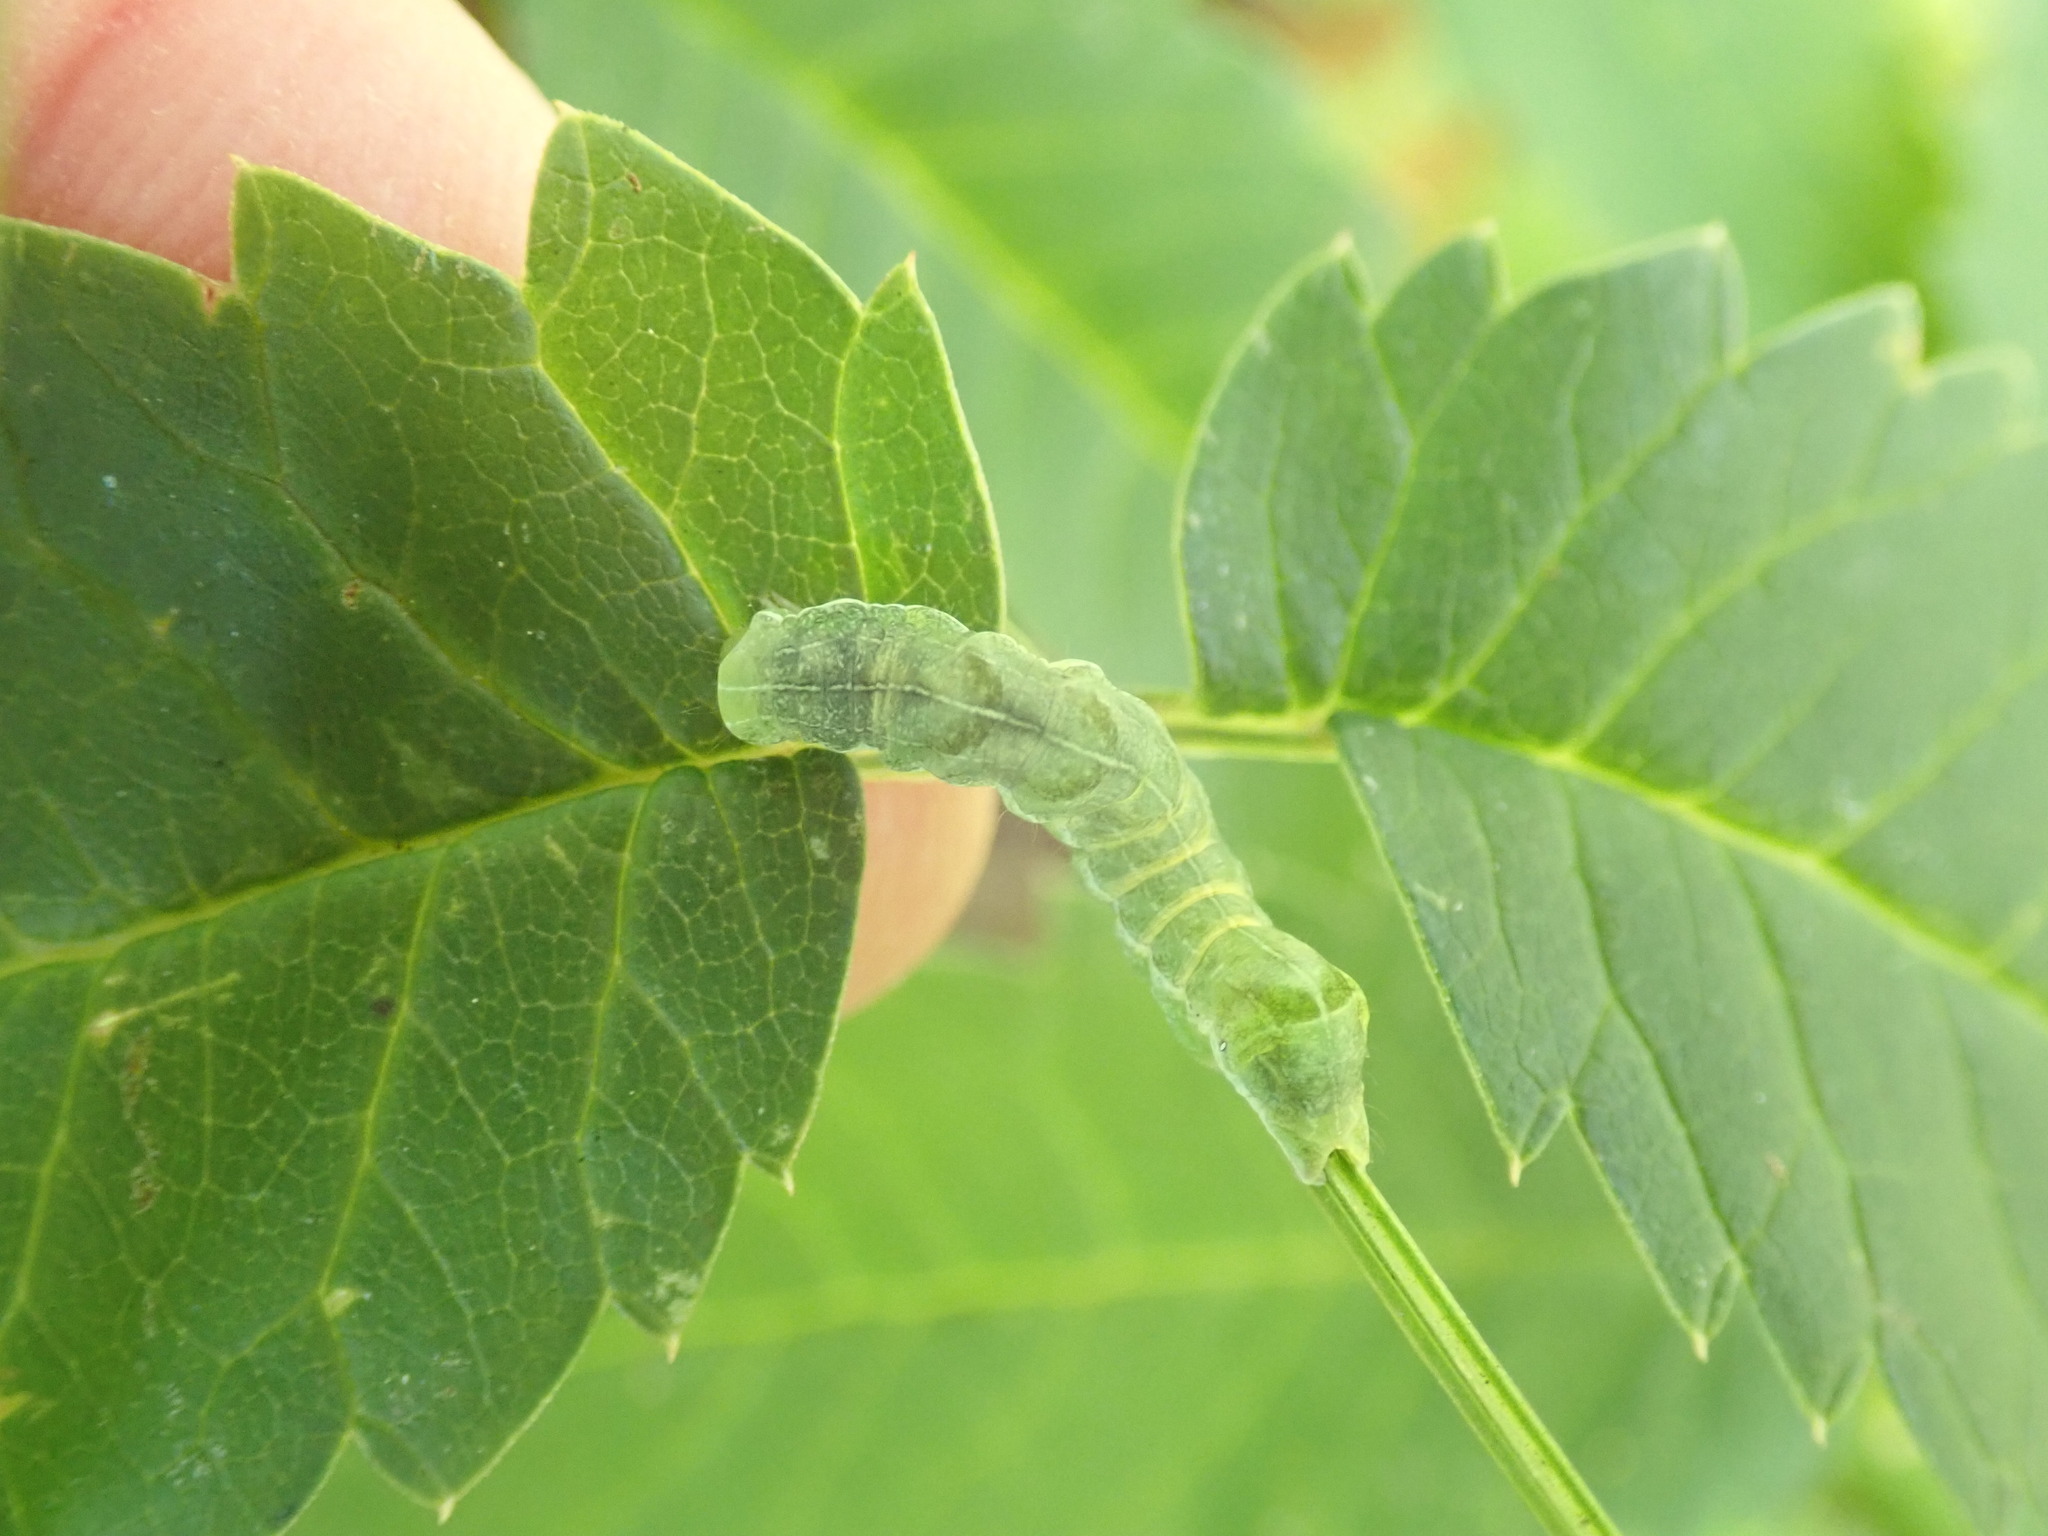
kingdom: Animalia
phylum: Arthropoda
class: Insecta
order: Lepidoptera
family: Noctuidae
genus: Melanchra
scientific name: Melanchra adjuncta
